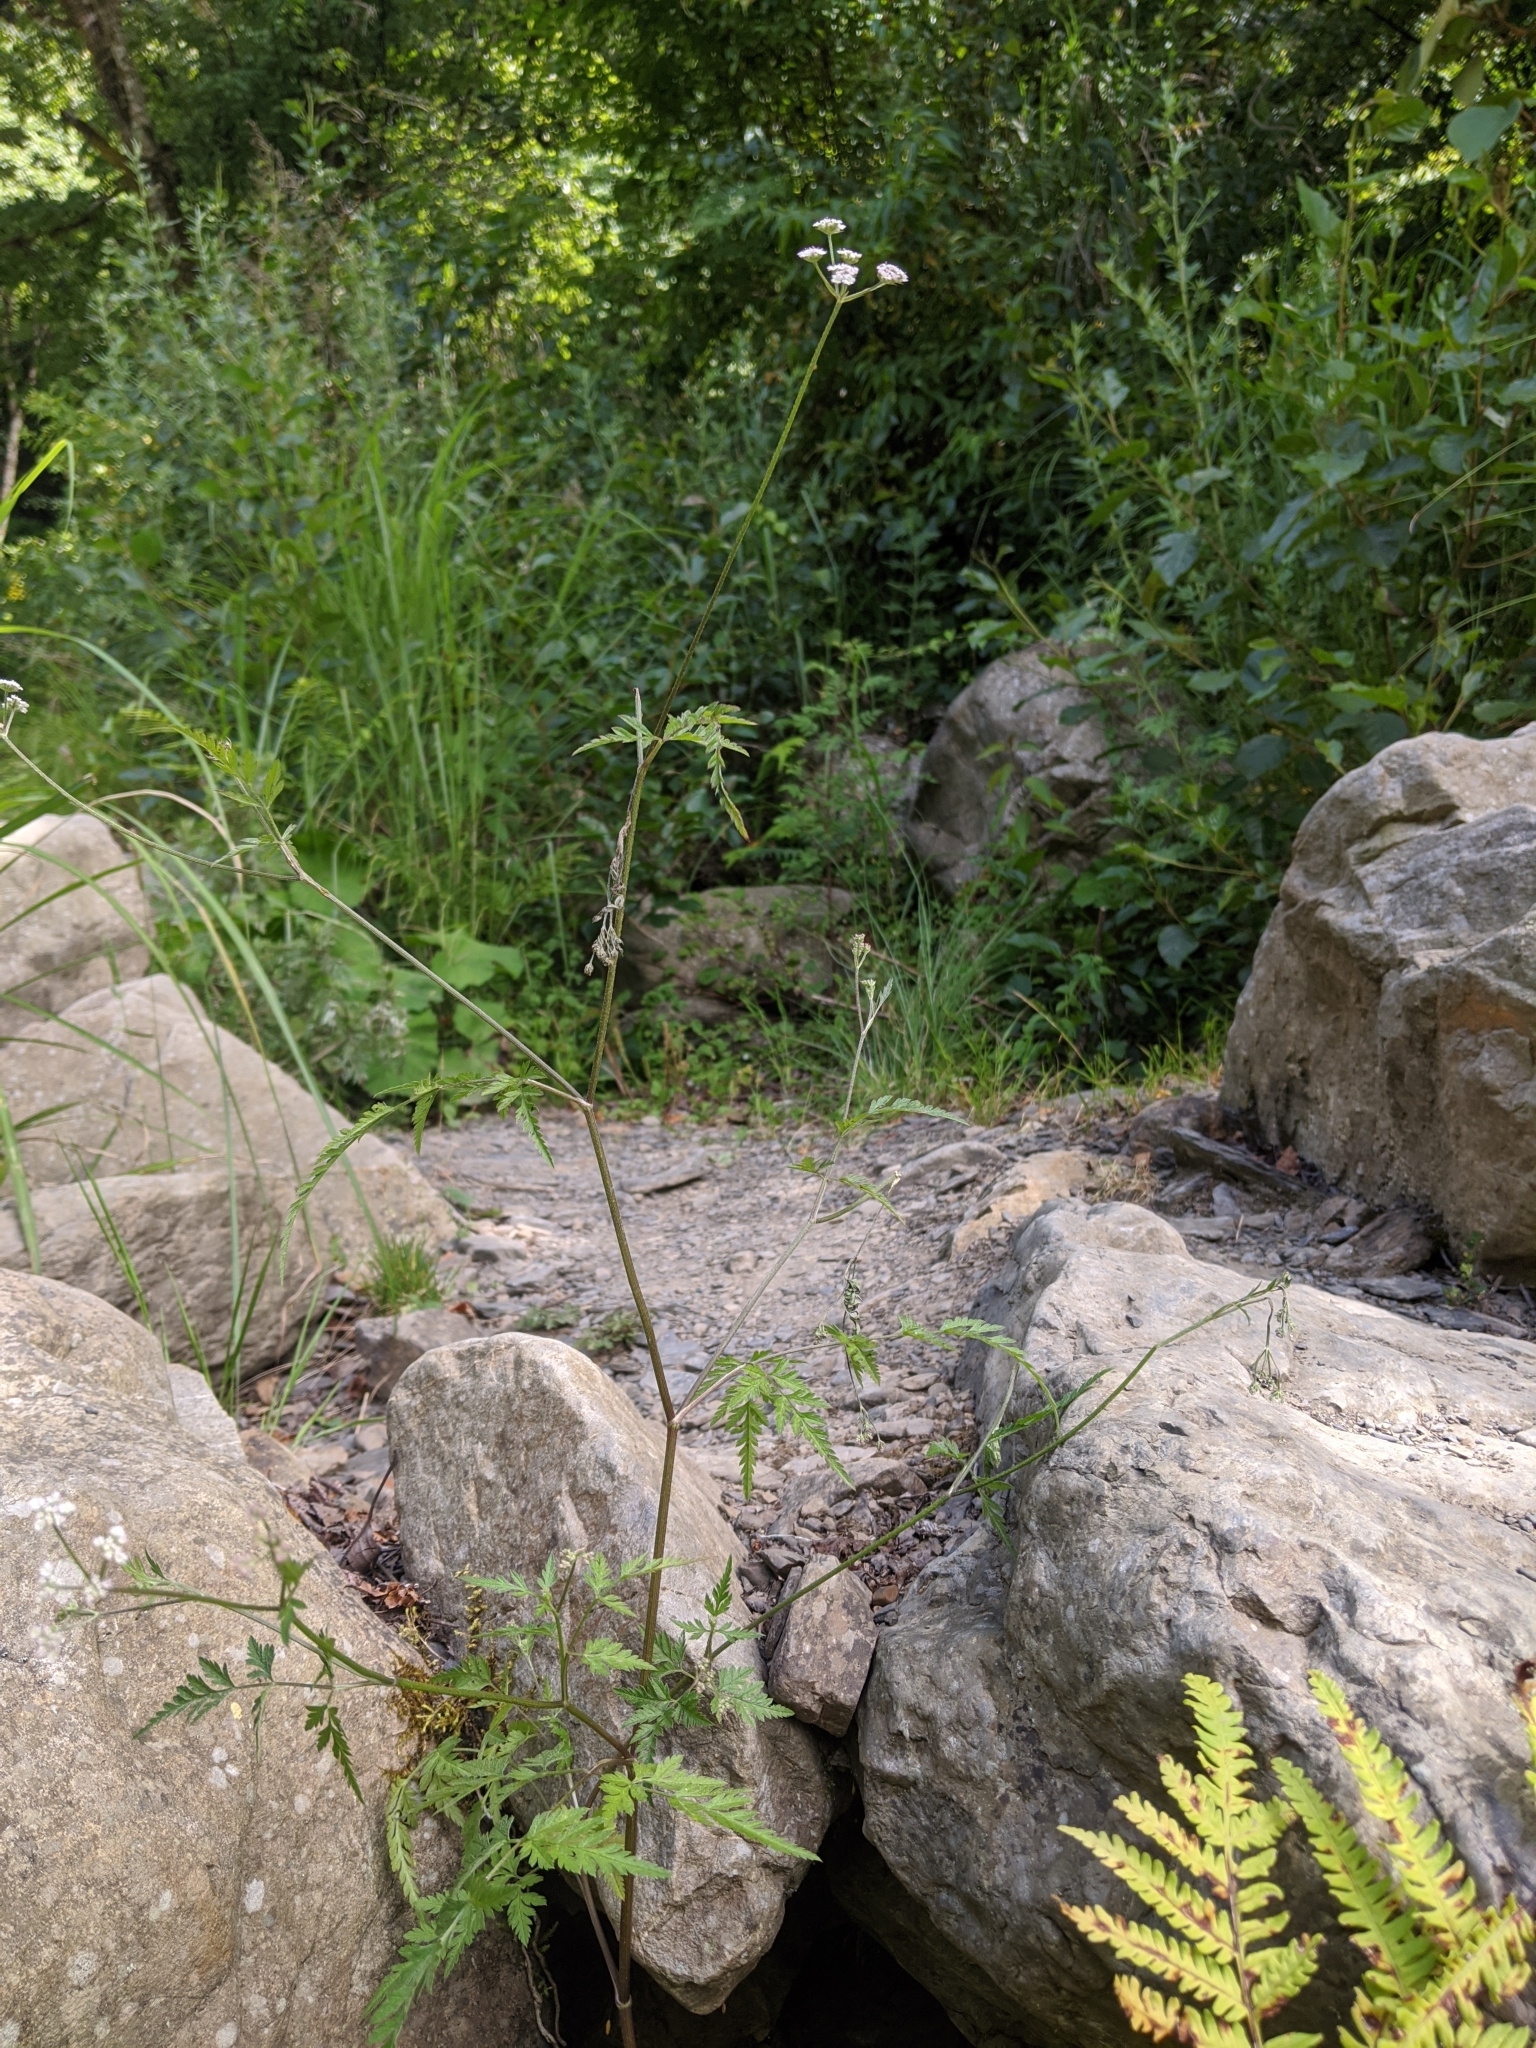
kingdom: Plantae
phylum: Tracheophyta
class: Magnoliopsida
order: Apiales
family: Apiaceae
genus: Torilis
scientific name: Torilis japonica
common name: Upright hedge-parsley
